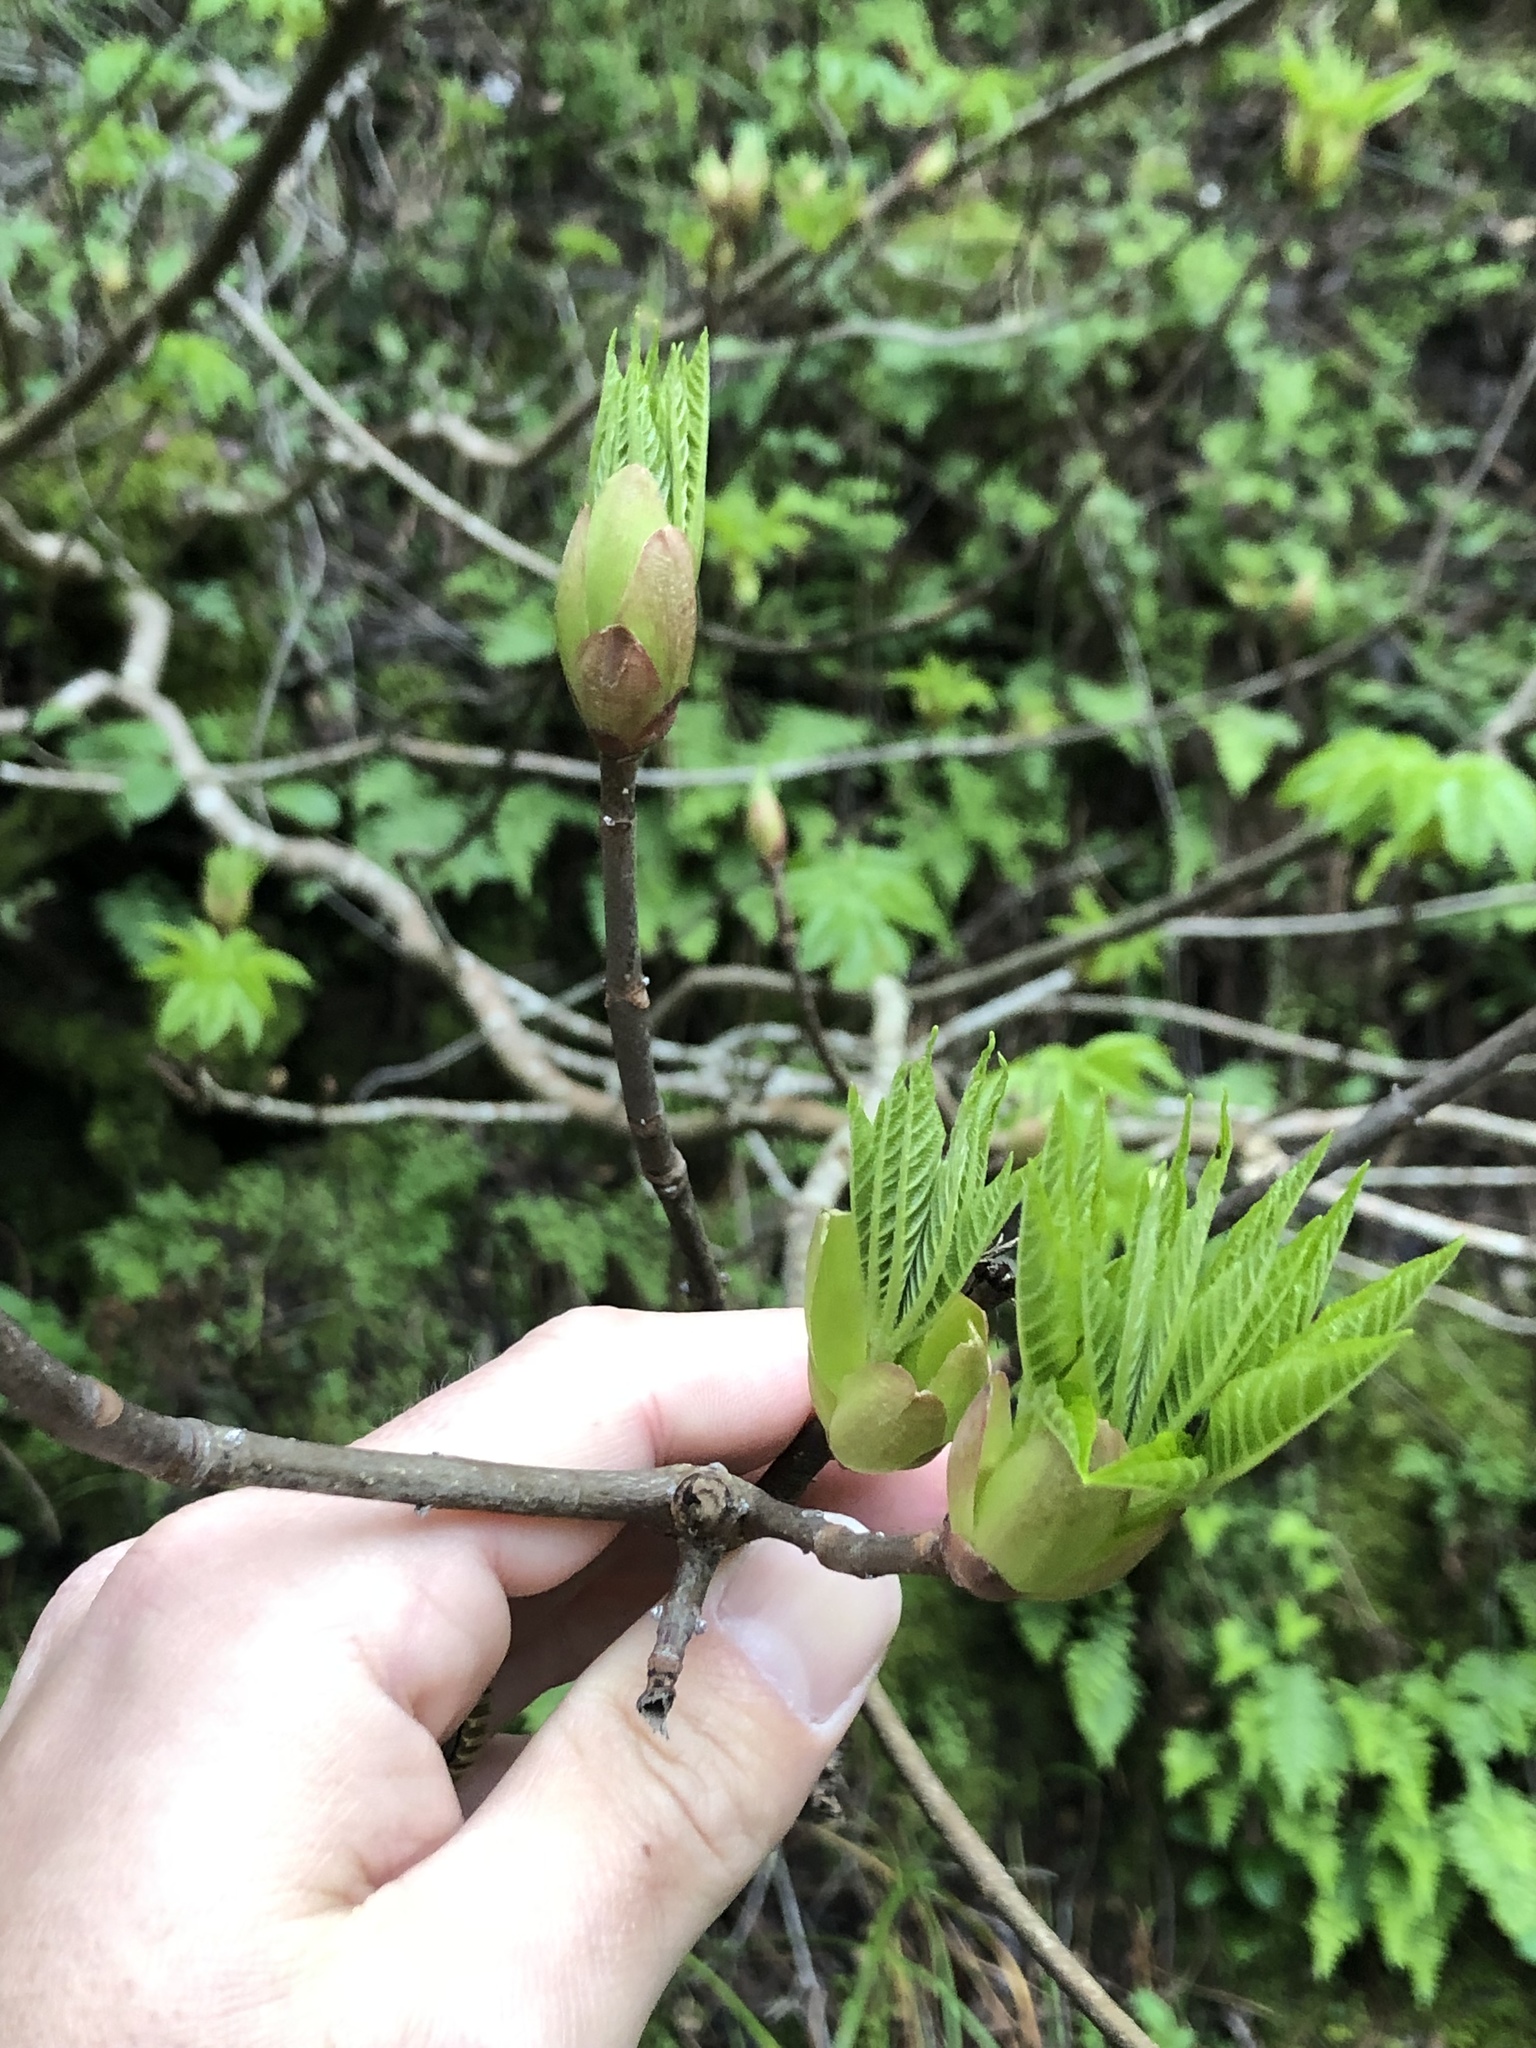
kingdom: Plantae
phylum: Tracheophyta
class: Magnoliopsida
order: Sapindales
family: Sapindaceae
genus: Aesculus
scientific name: Aesculus californica
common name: California buckeye
